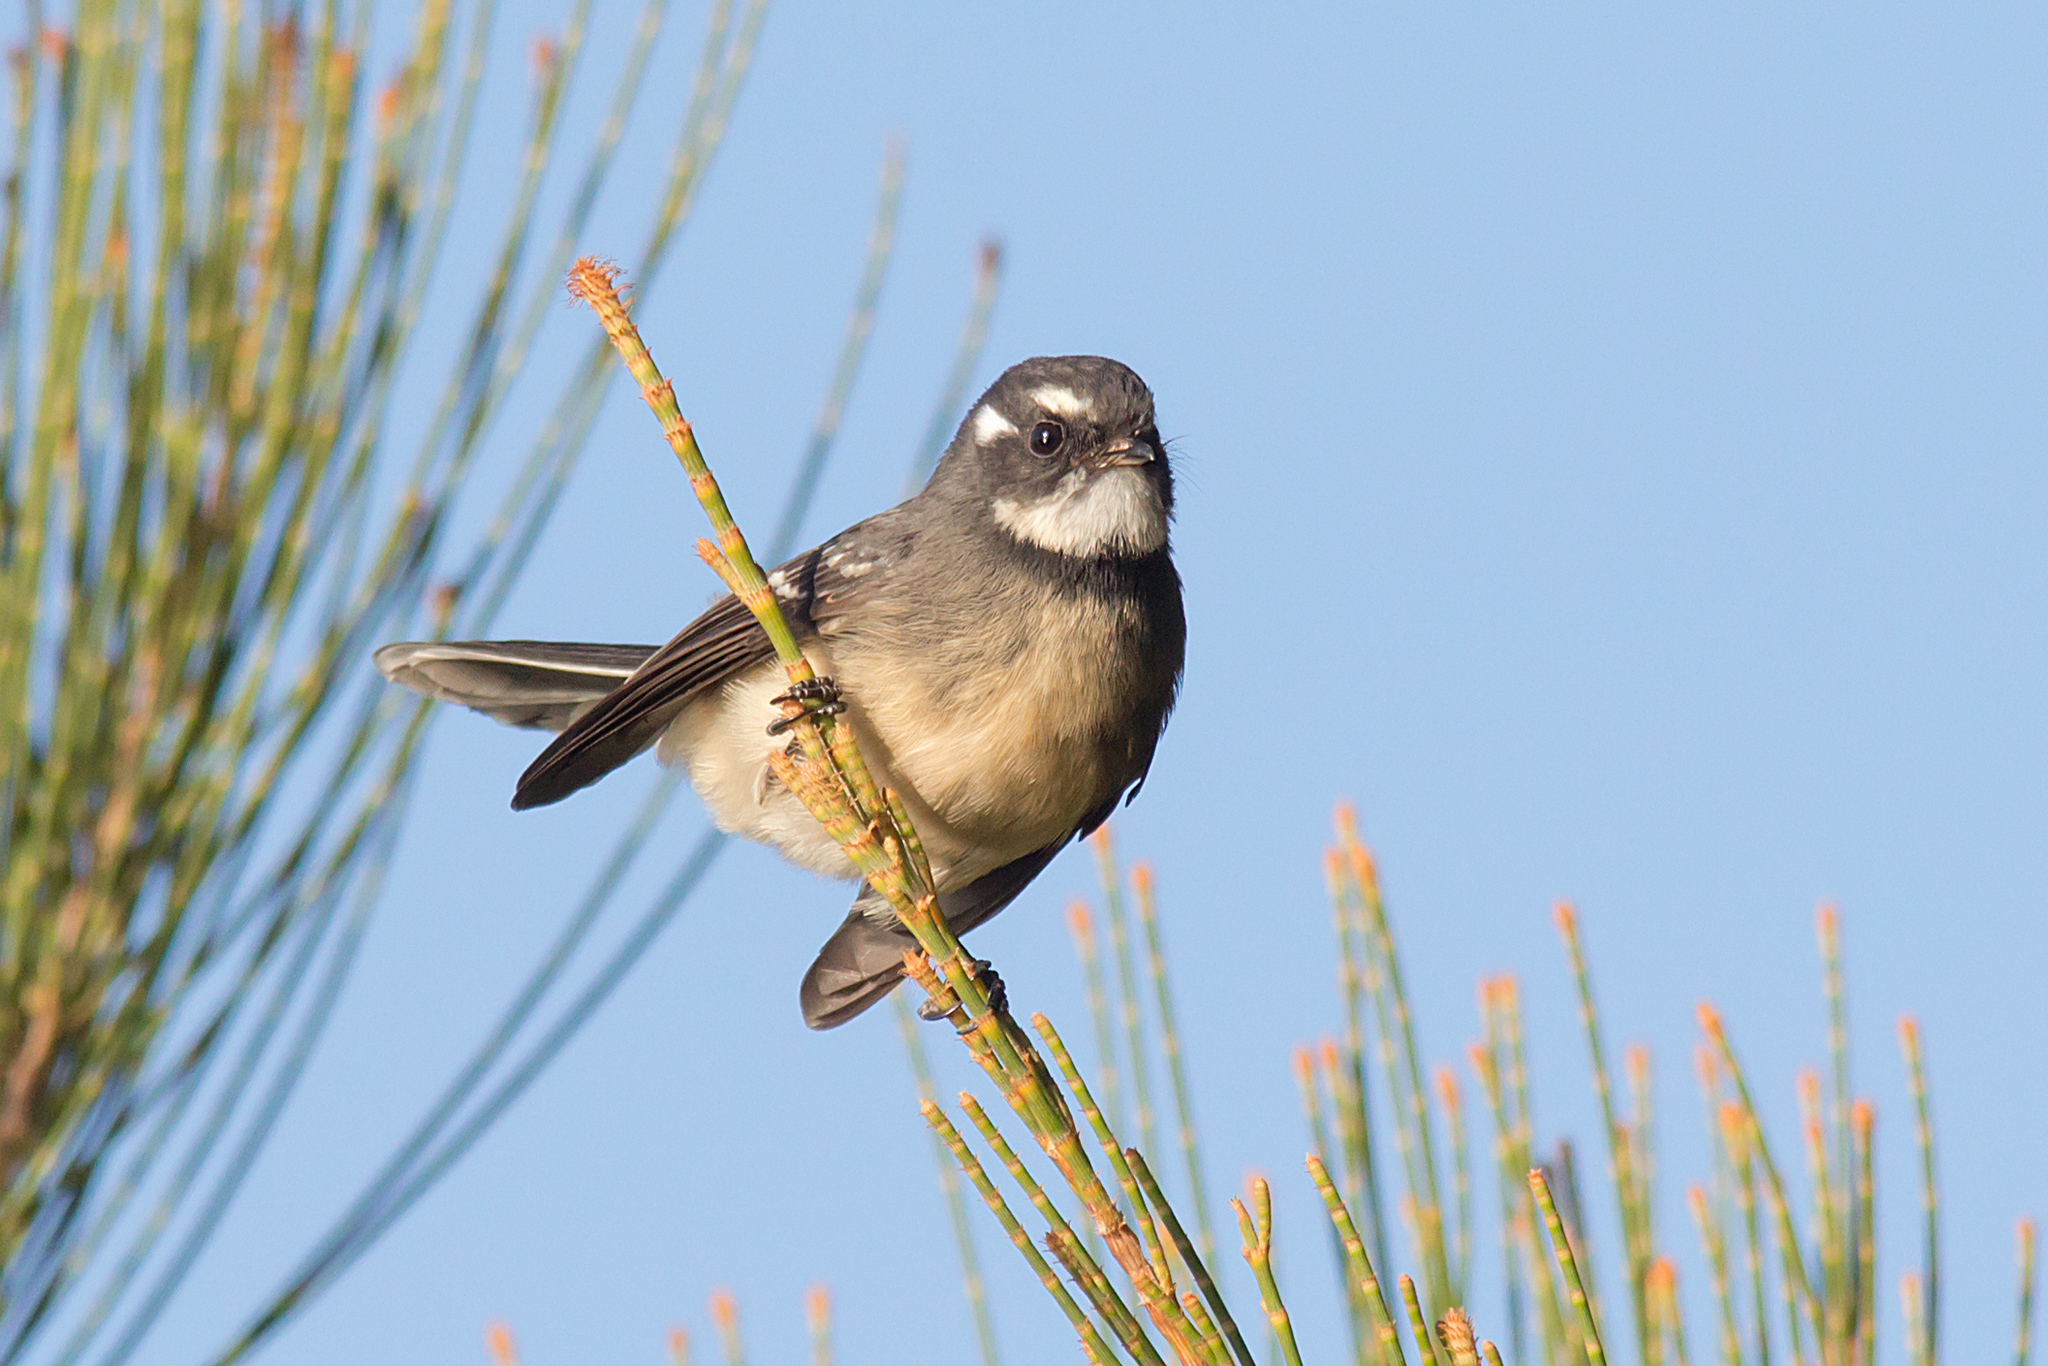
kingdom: Animalia
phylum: Chordata
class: Aves
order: Passeriformes
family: Rhipiduridae
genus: Rhipidura
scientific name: Rhipidura albiscapa
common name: Grey fantail
